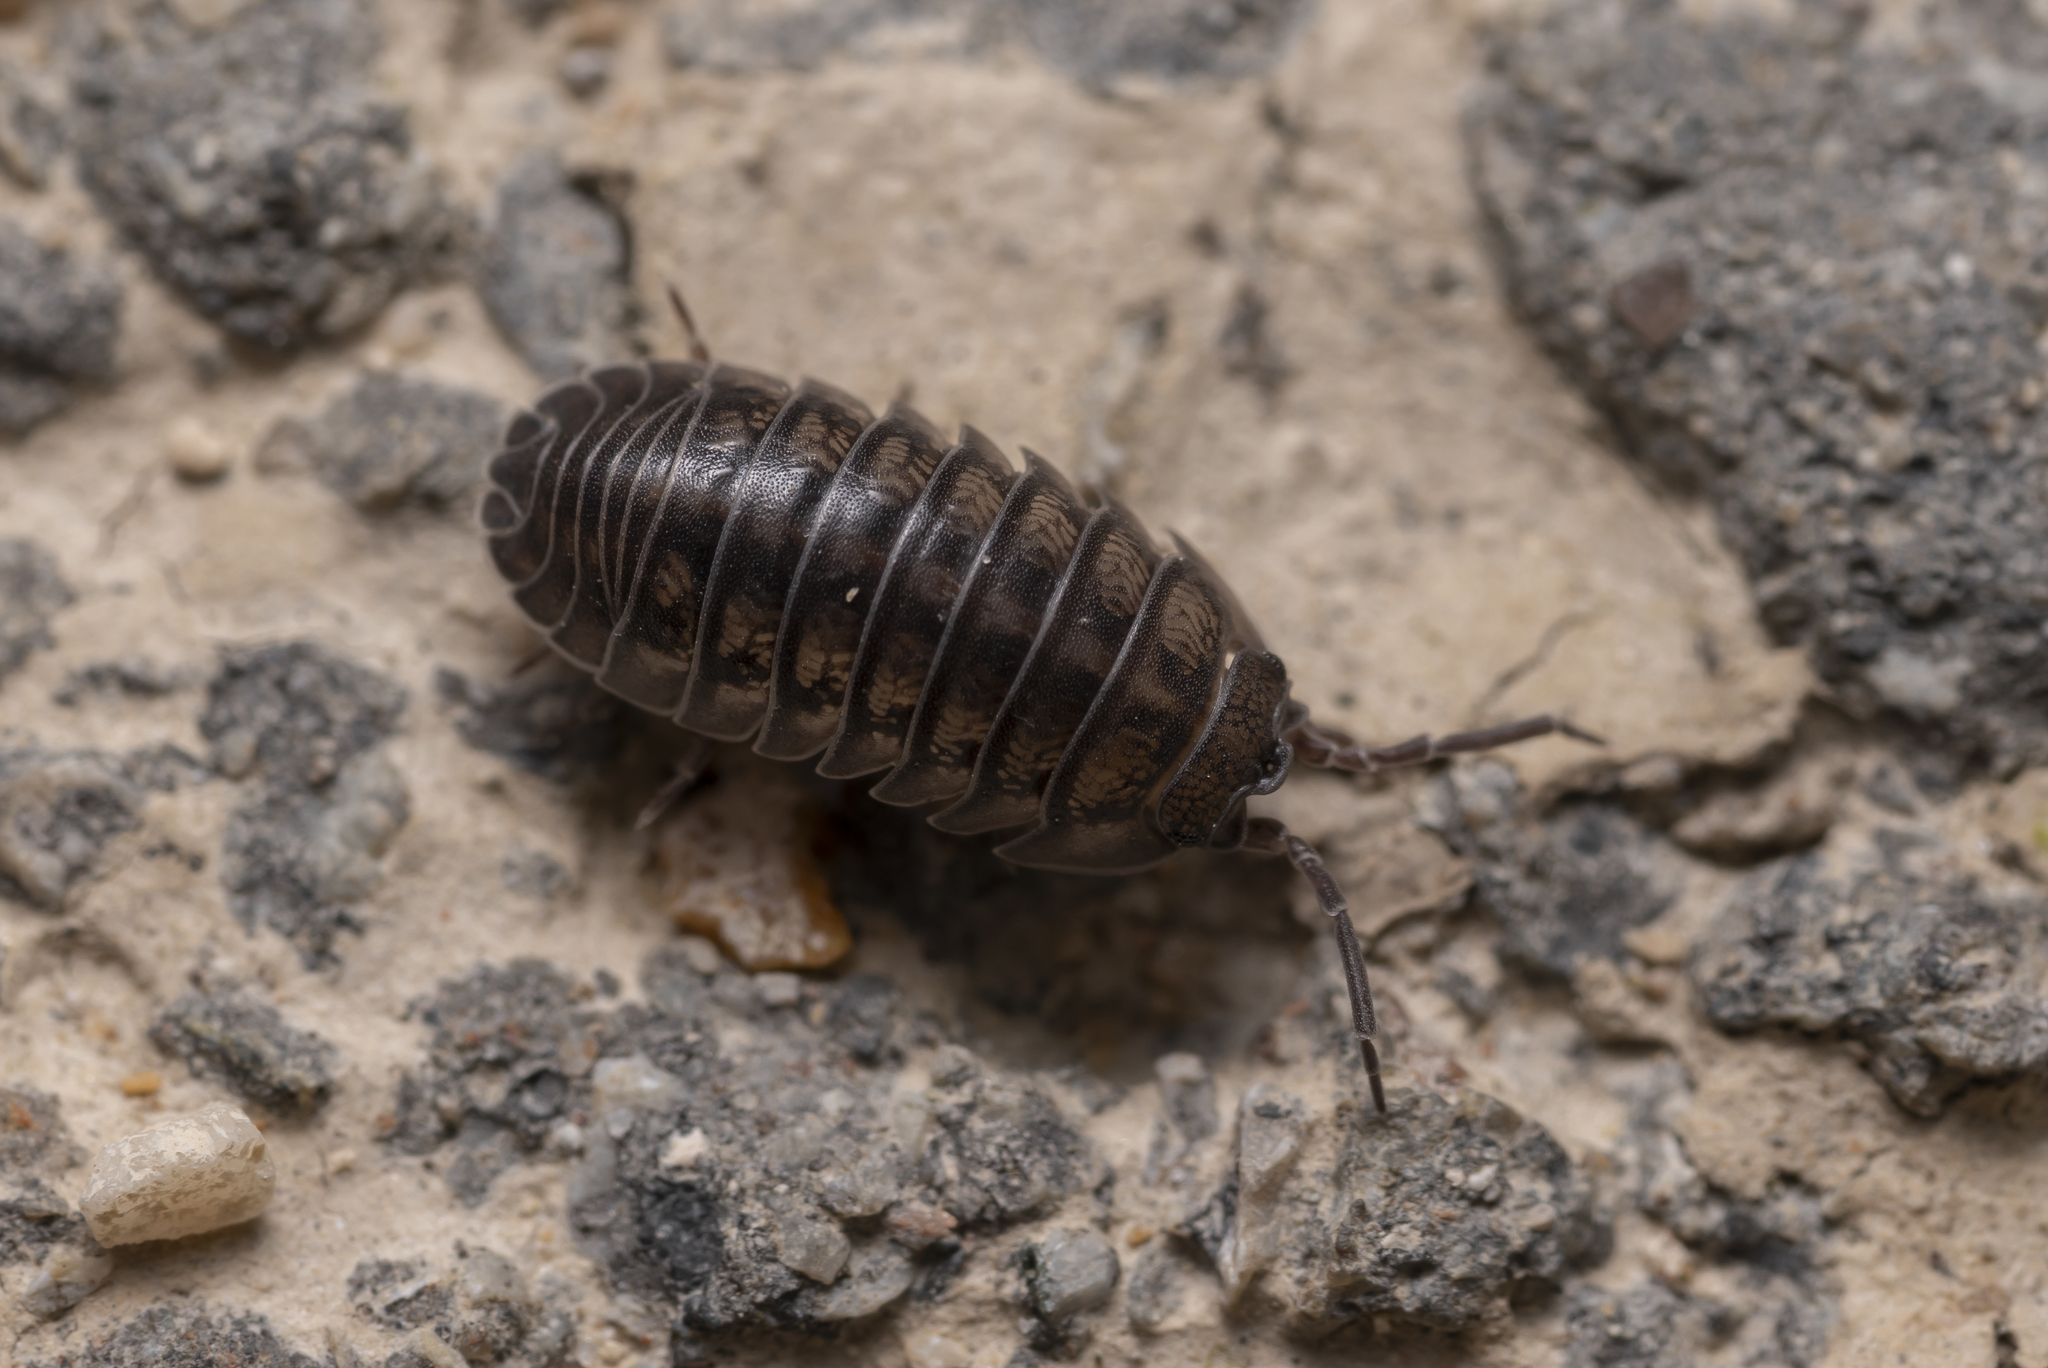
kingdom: Animalia
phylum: Arthropoda
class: Malacostraca
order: Isopoda
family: Armadillidiidae
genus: Armadillidium
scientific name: Armadillidium nasatum
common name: Isopod
